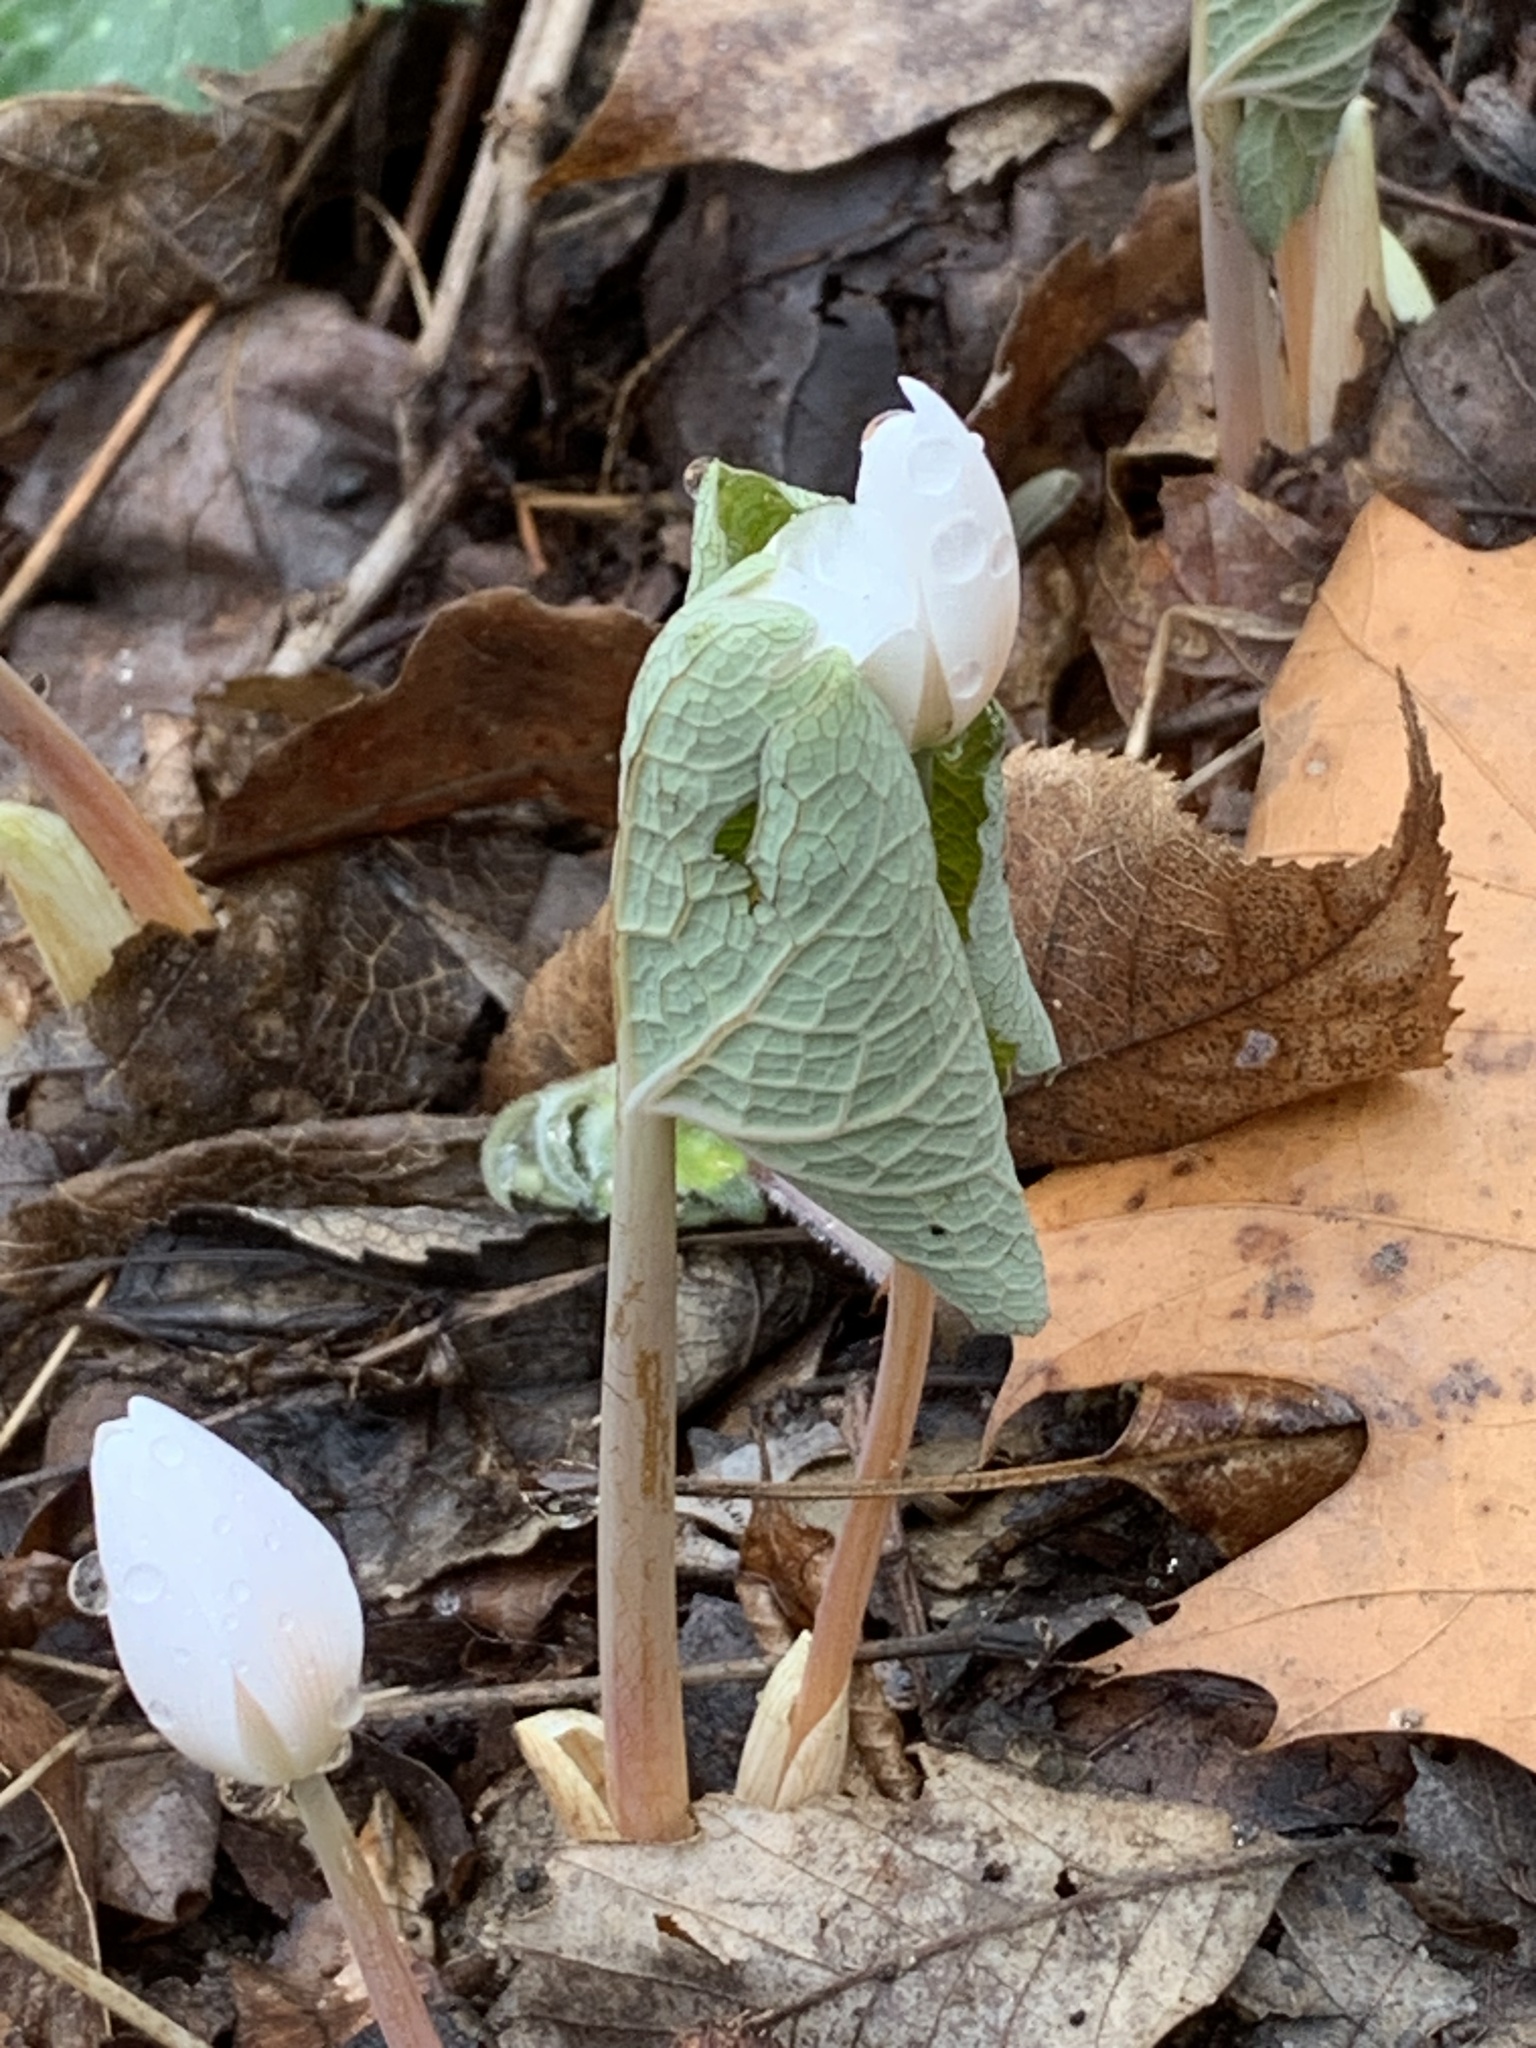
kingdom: Plantae
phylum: Tracheophyta
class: Magnoliopsida
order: Ranunculales
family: Papaveraceae
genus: Sanguinaria
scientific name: Sanguinaria canadensis
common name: Bloodroot
